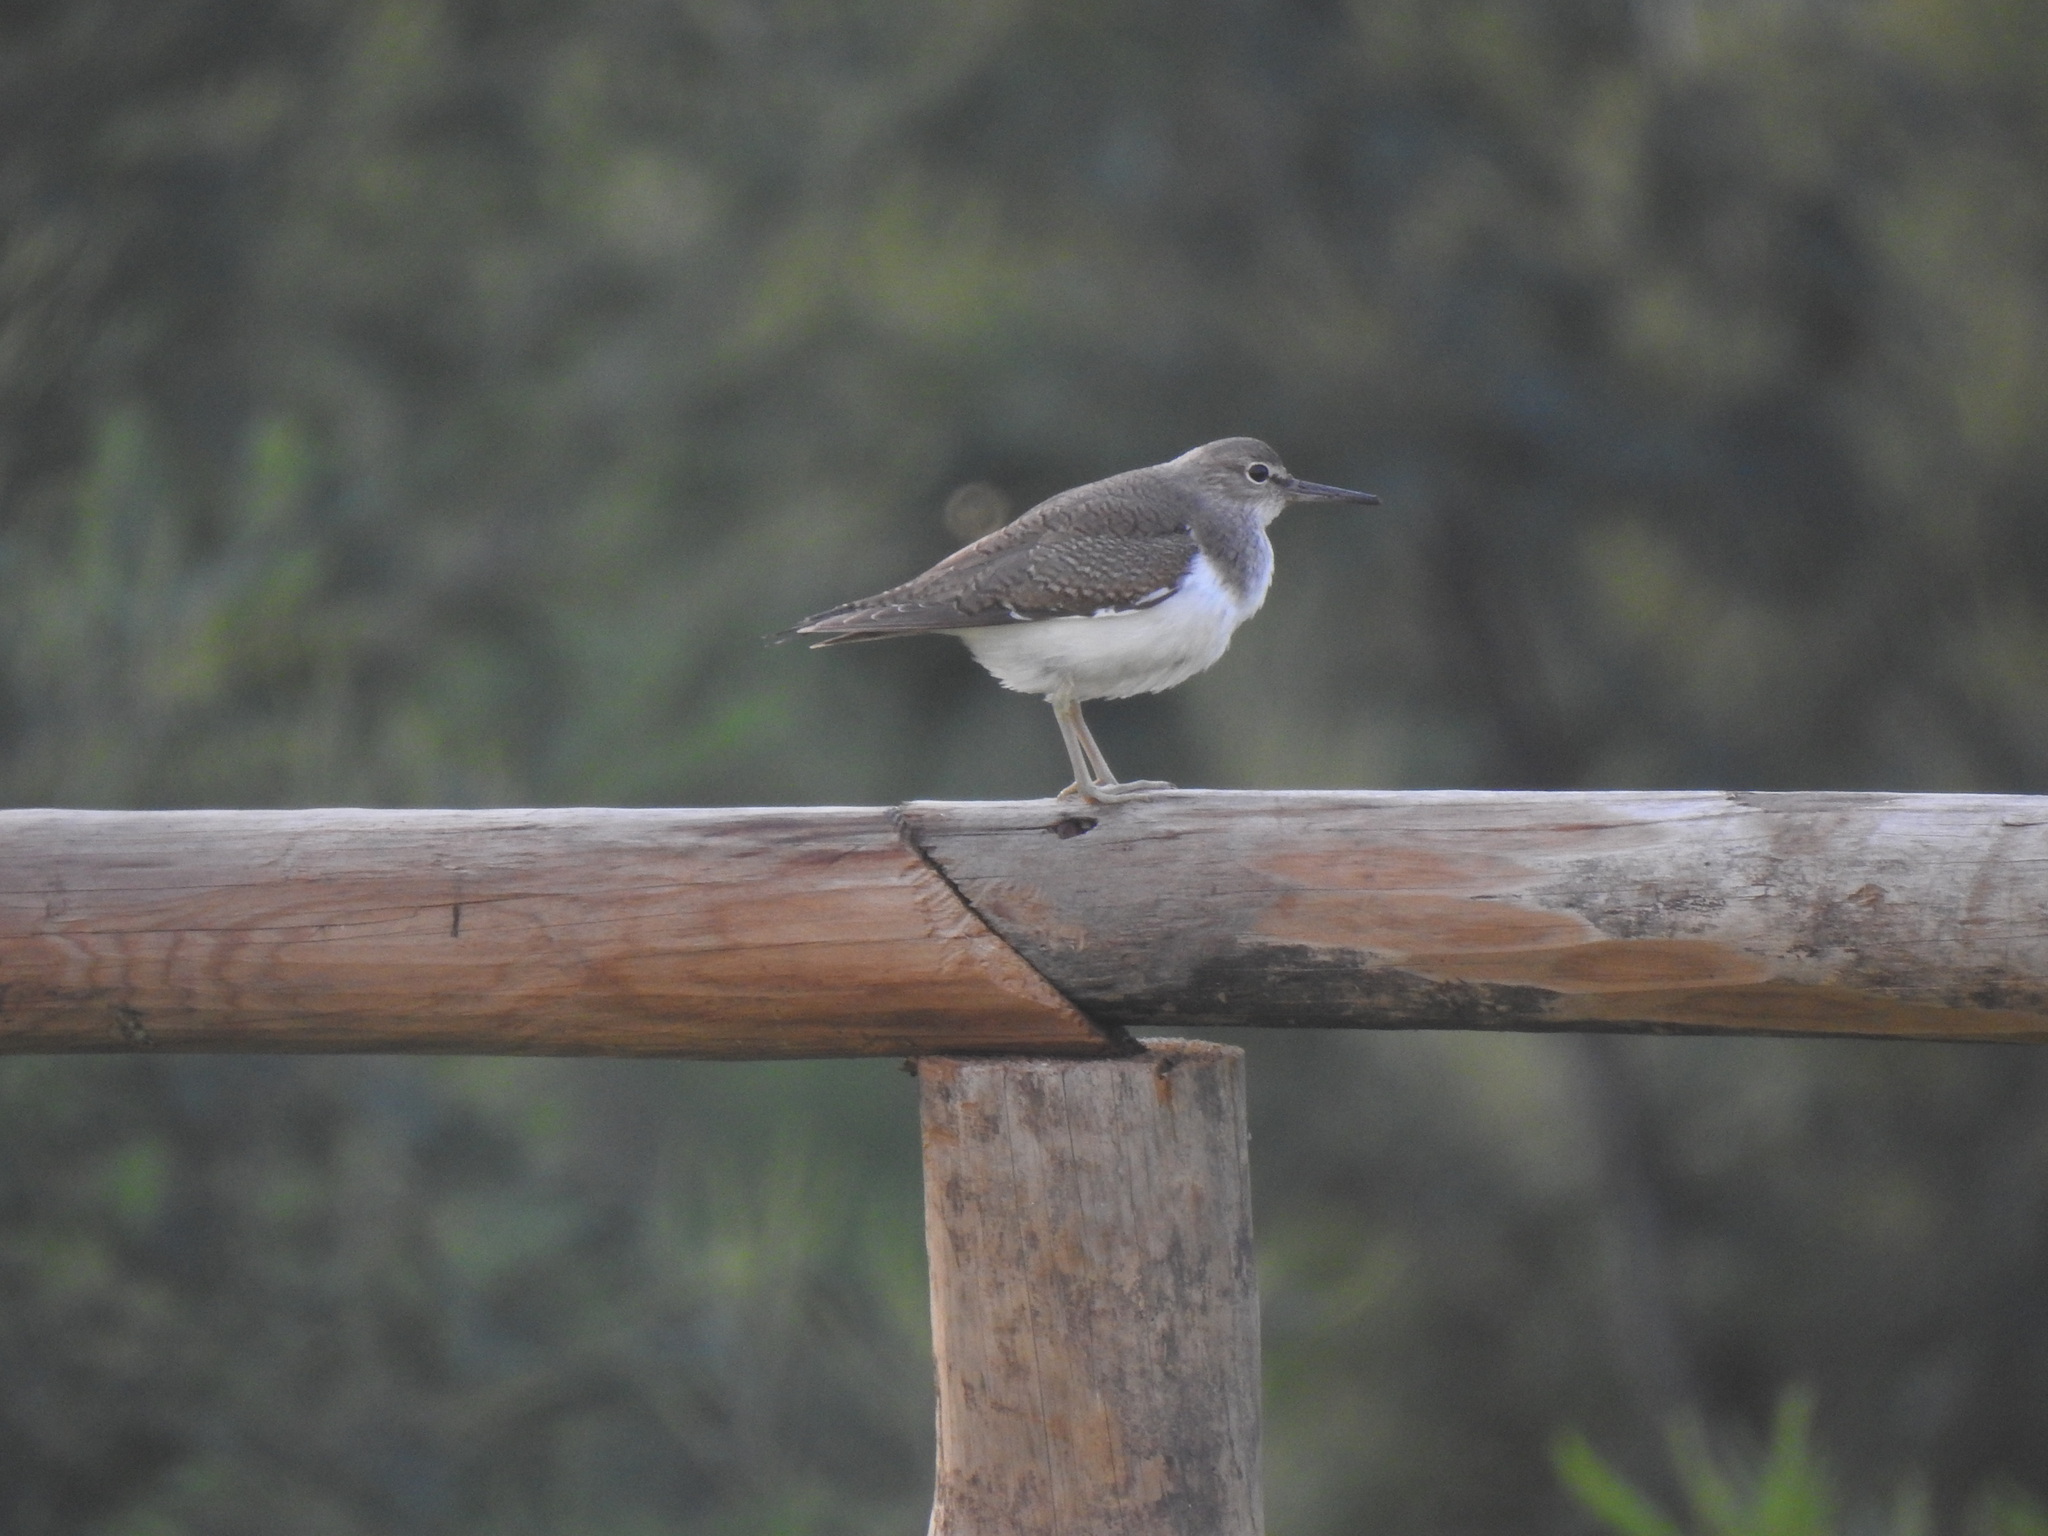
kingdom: Animalia
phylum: Chordata
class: Aves
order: Charadriiformes
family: Scolopacidae
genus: Actitis
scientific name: Actitis hypoleucos
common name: Common sandpiper
